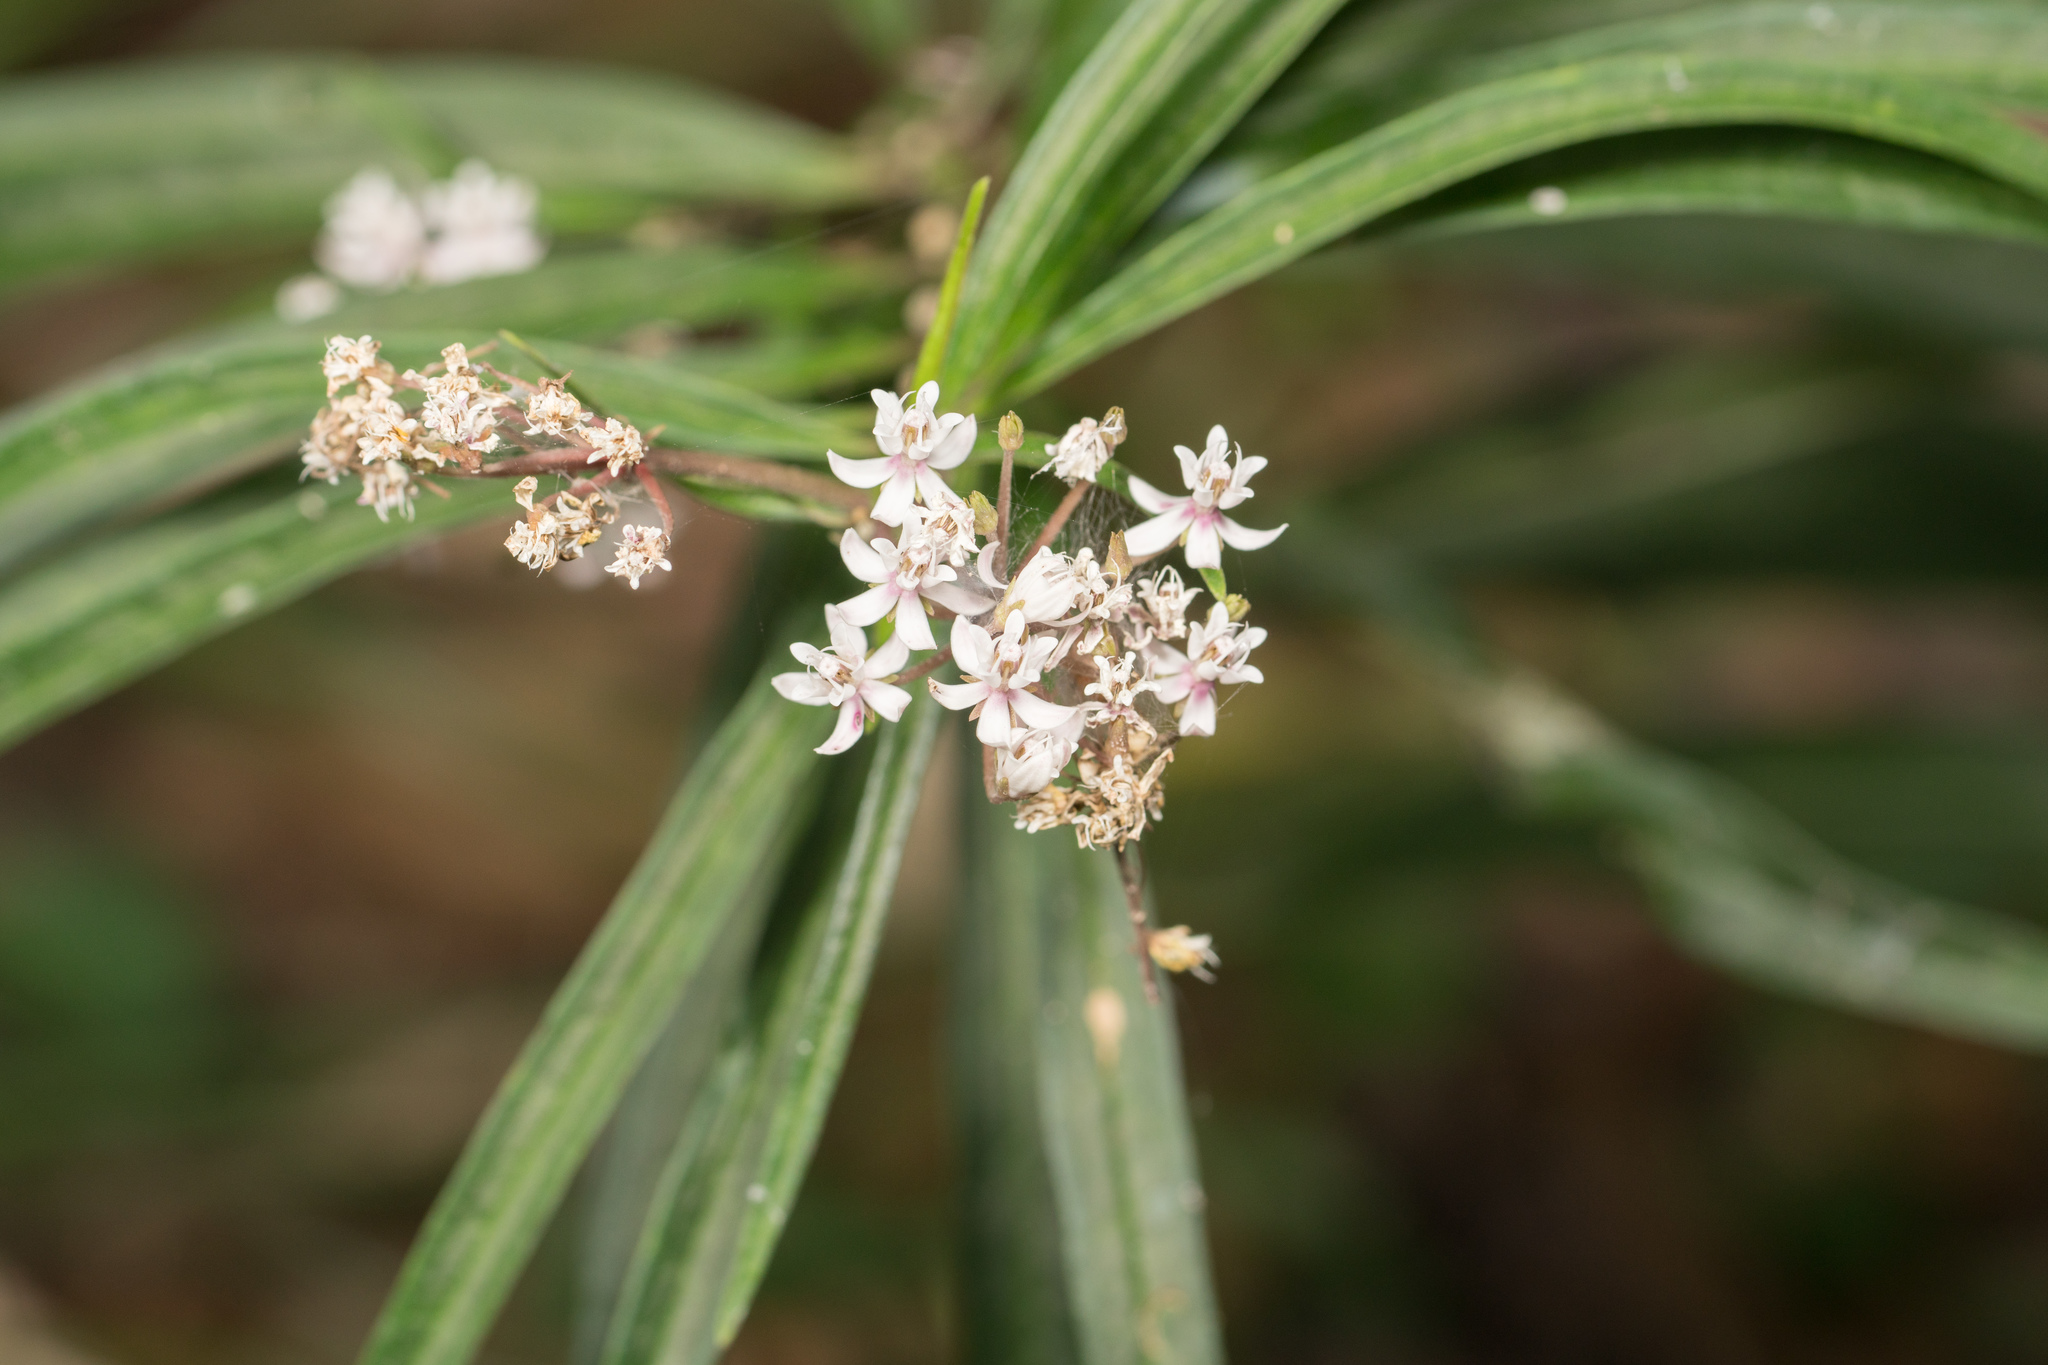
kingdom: Plantae
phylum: Tracheophyta
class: Magnoliopsida
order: Gentianales
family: Apocynaceae
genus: Asclepias
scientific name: Asclepias perennis
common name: Smooth-seed milkweed
